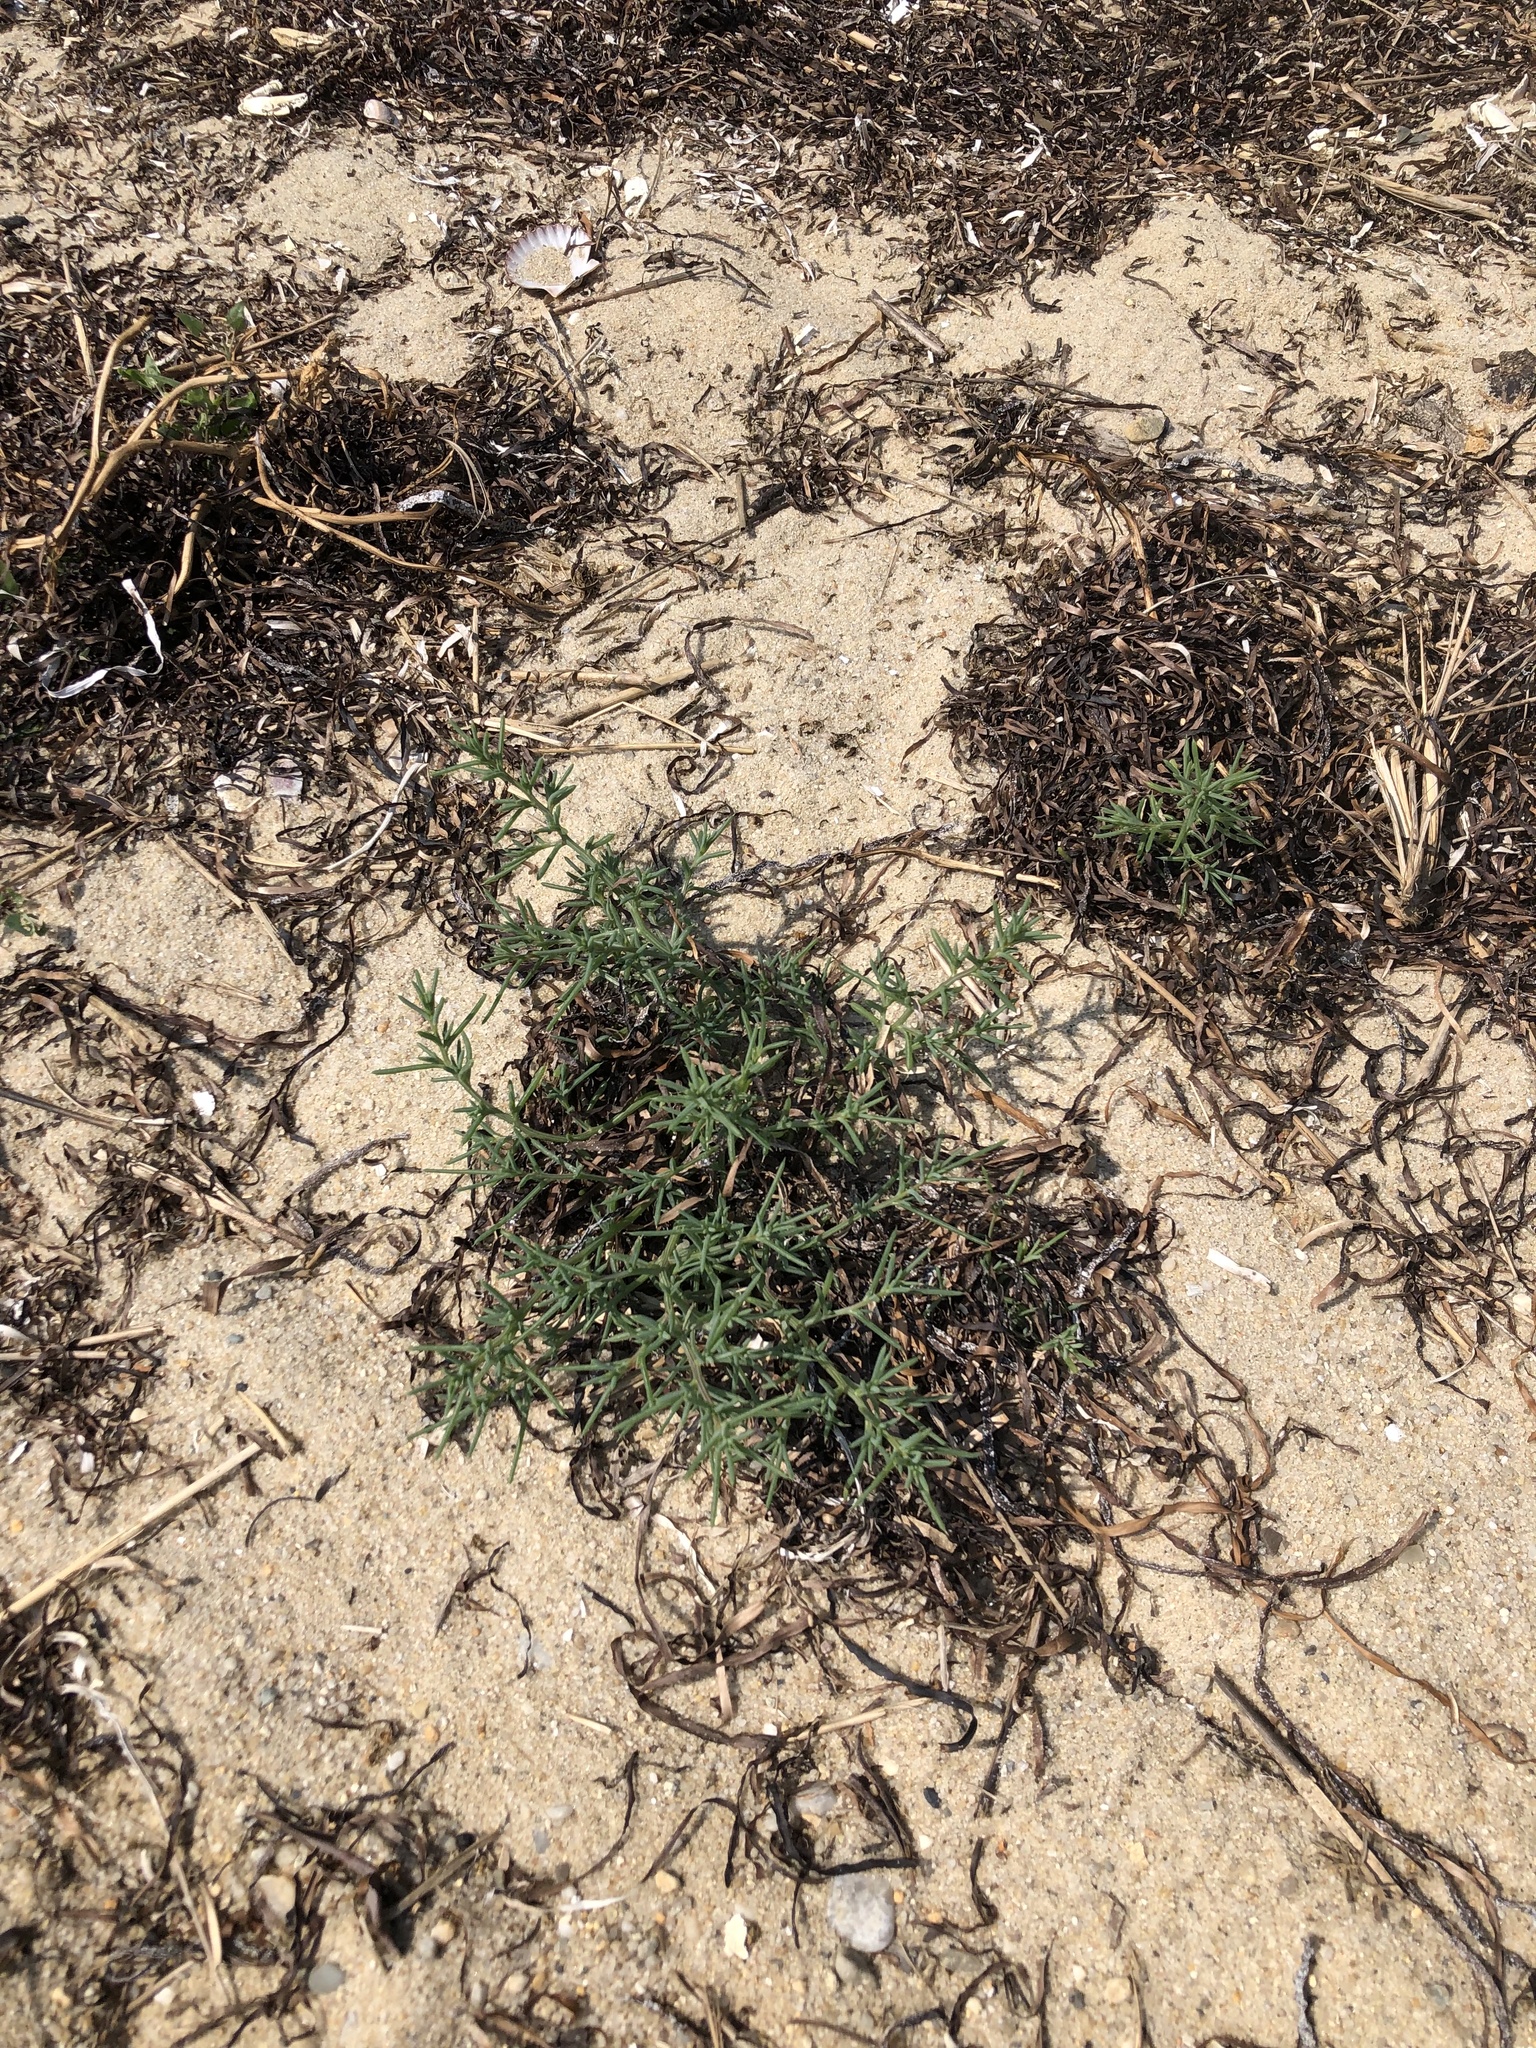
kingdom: Plantae
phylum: Tracheophyta
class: Magnoliopsida
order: Caryophyllales
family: Amaranthaceae
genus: Salsola
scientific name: Salsola kali
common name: Saltwort
